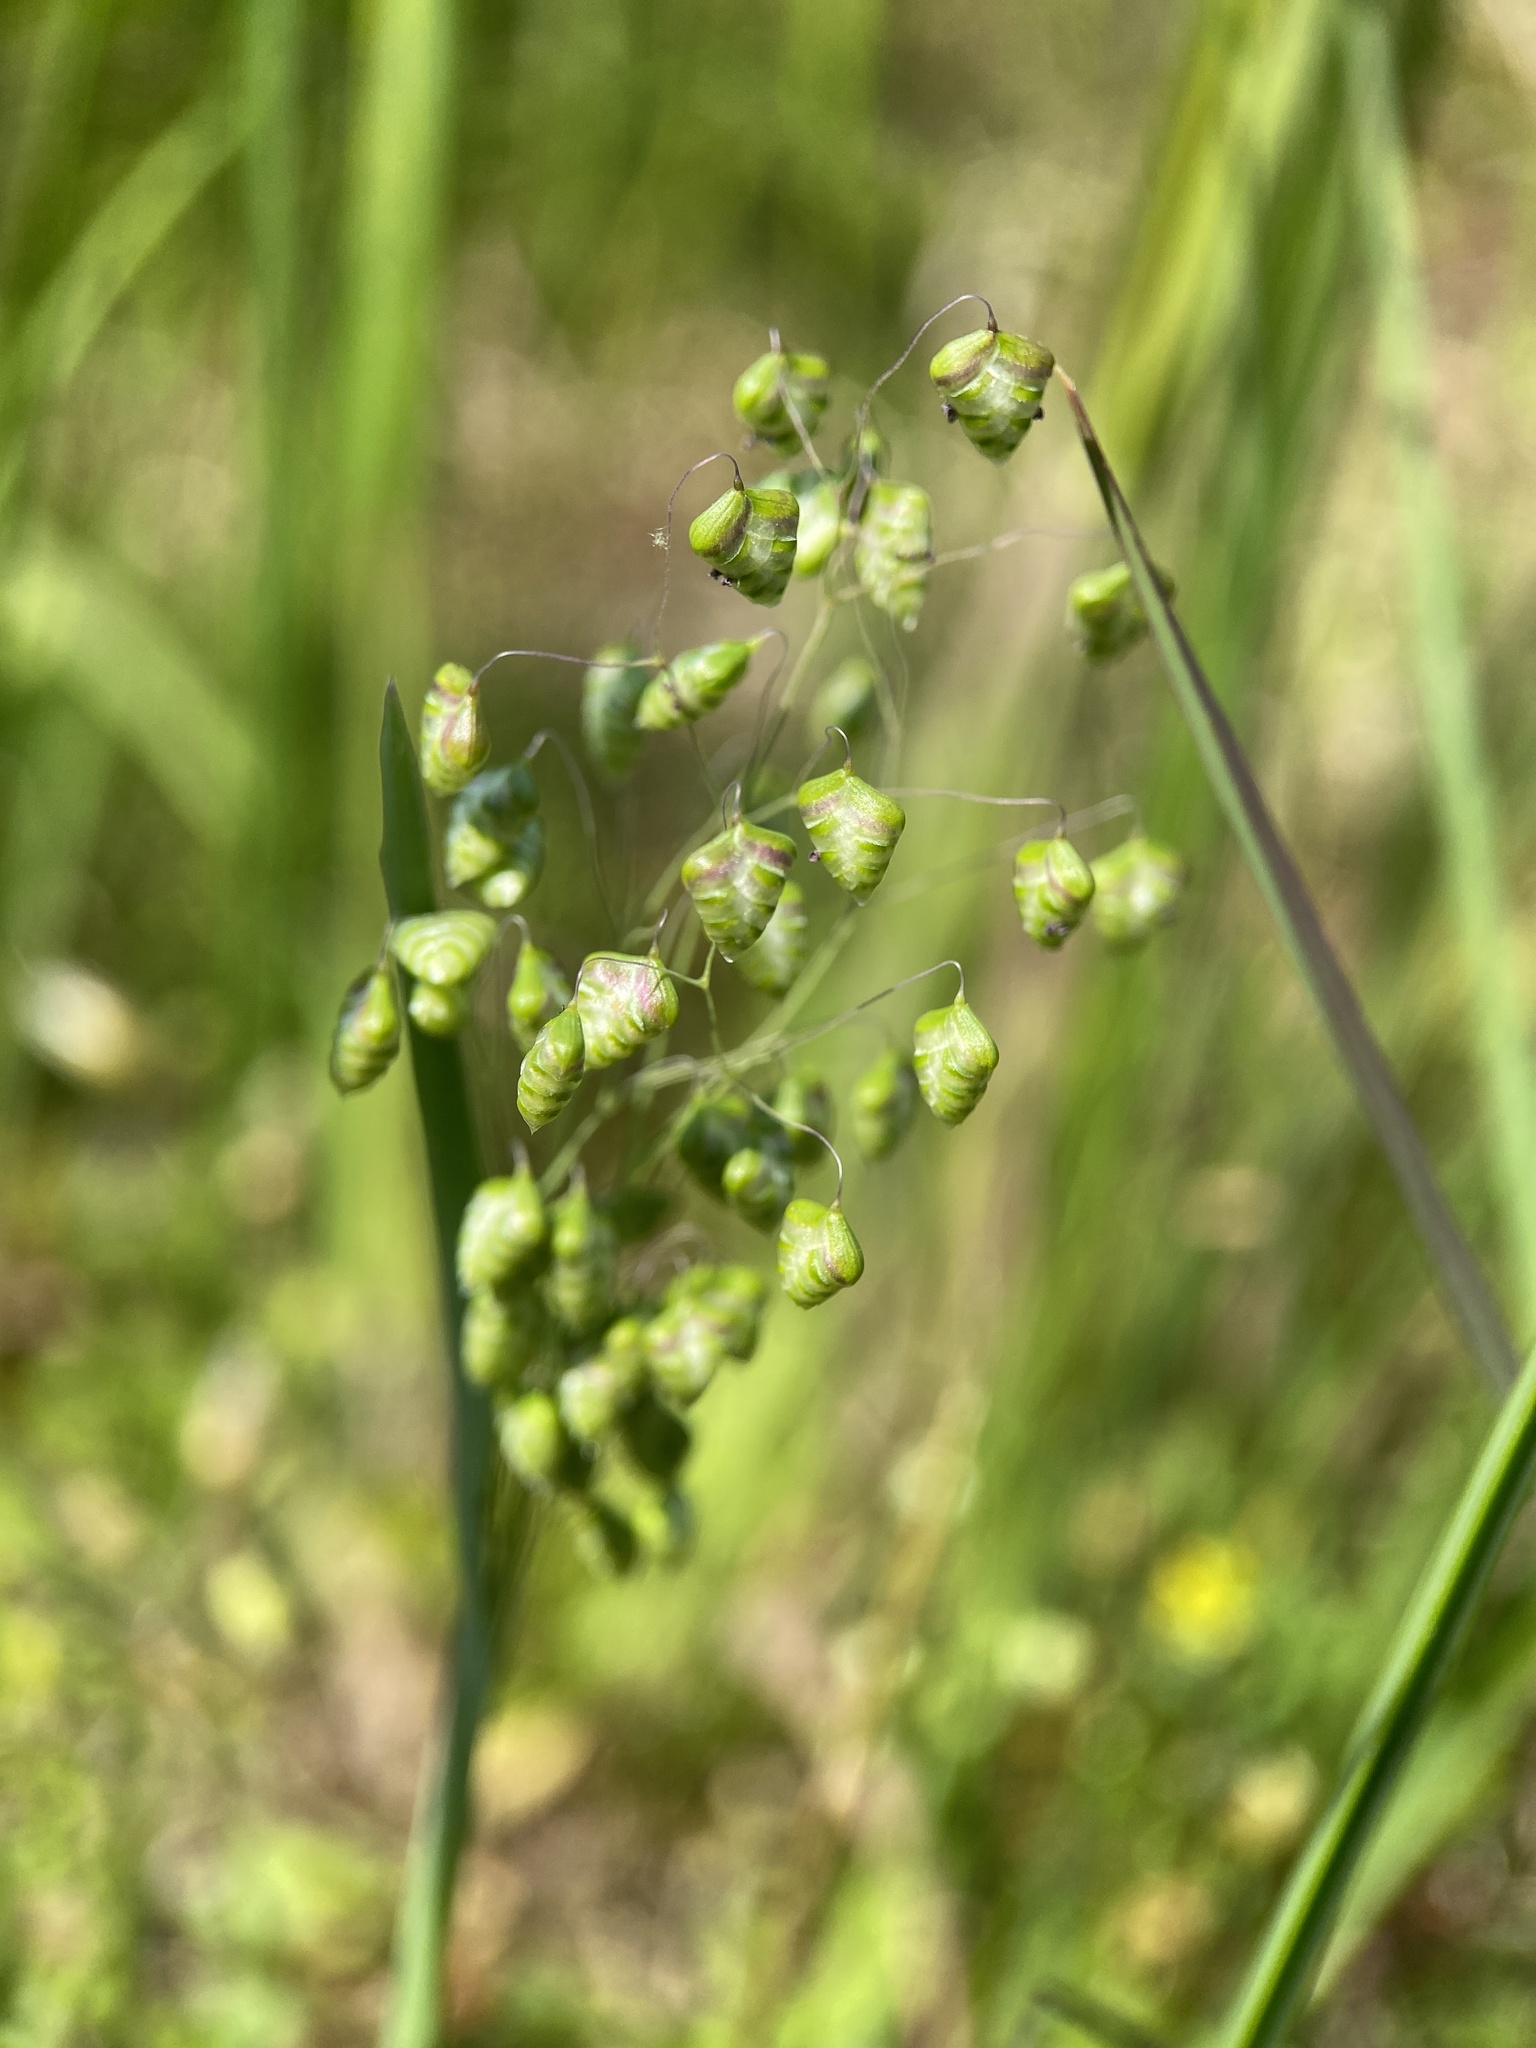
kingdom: Plantae
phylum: Tracheophyta
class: Liliopsida
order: Poales
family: Poaceae
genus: Briza
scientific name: Briza minor
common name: Lesser quaking-grass
